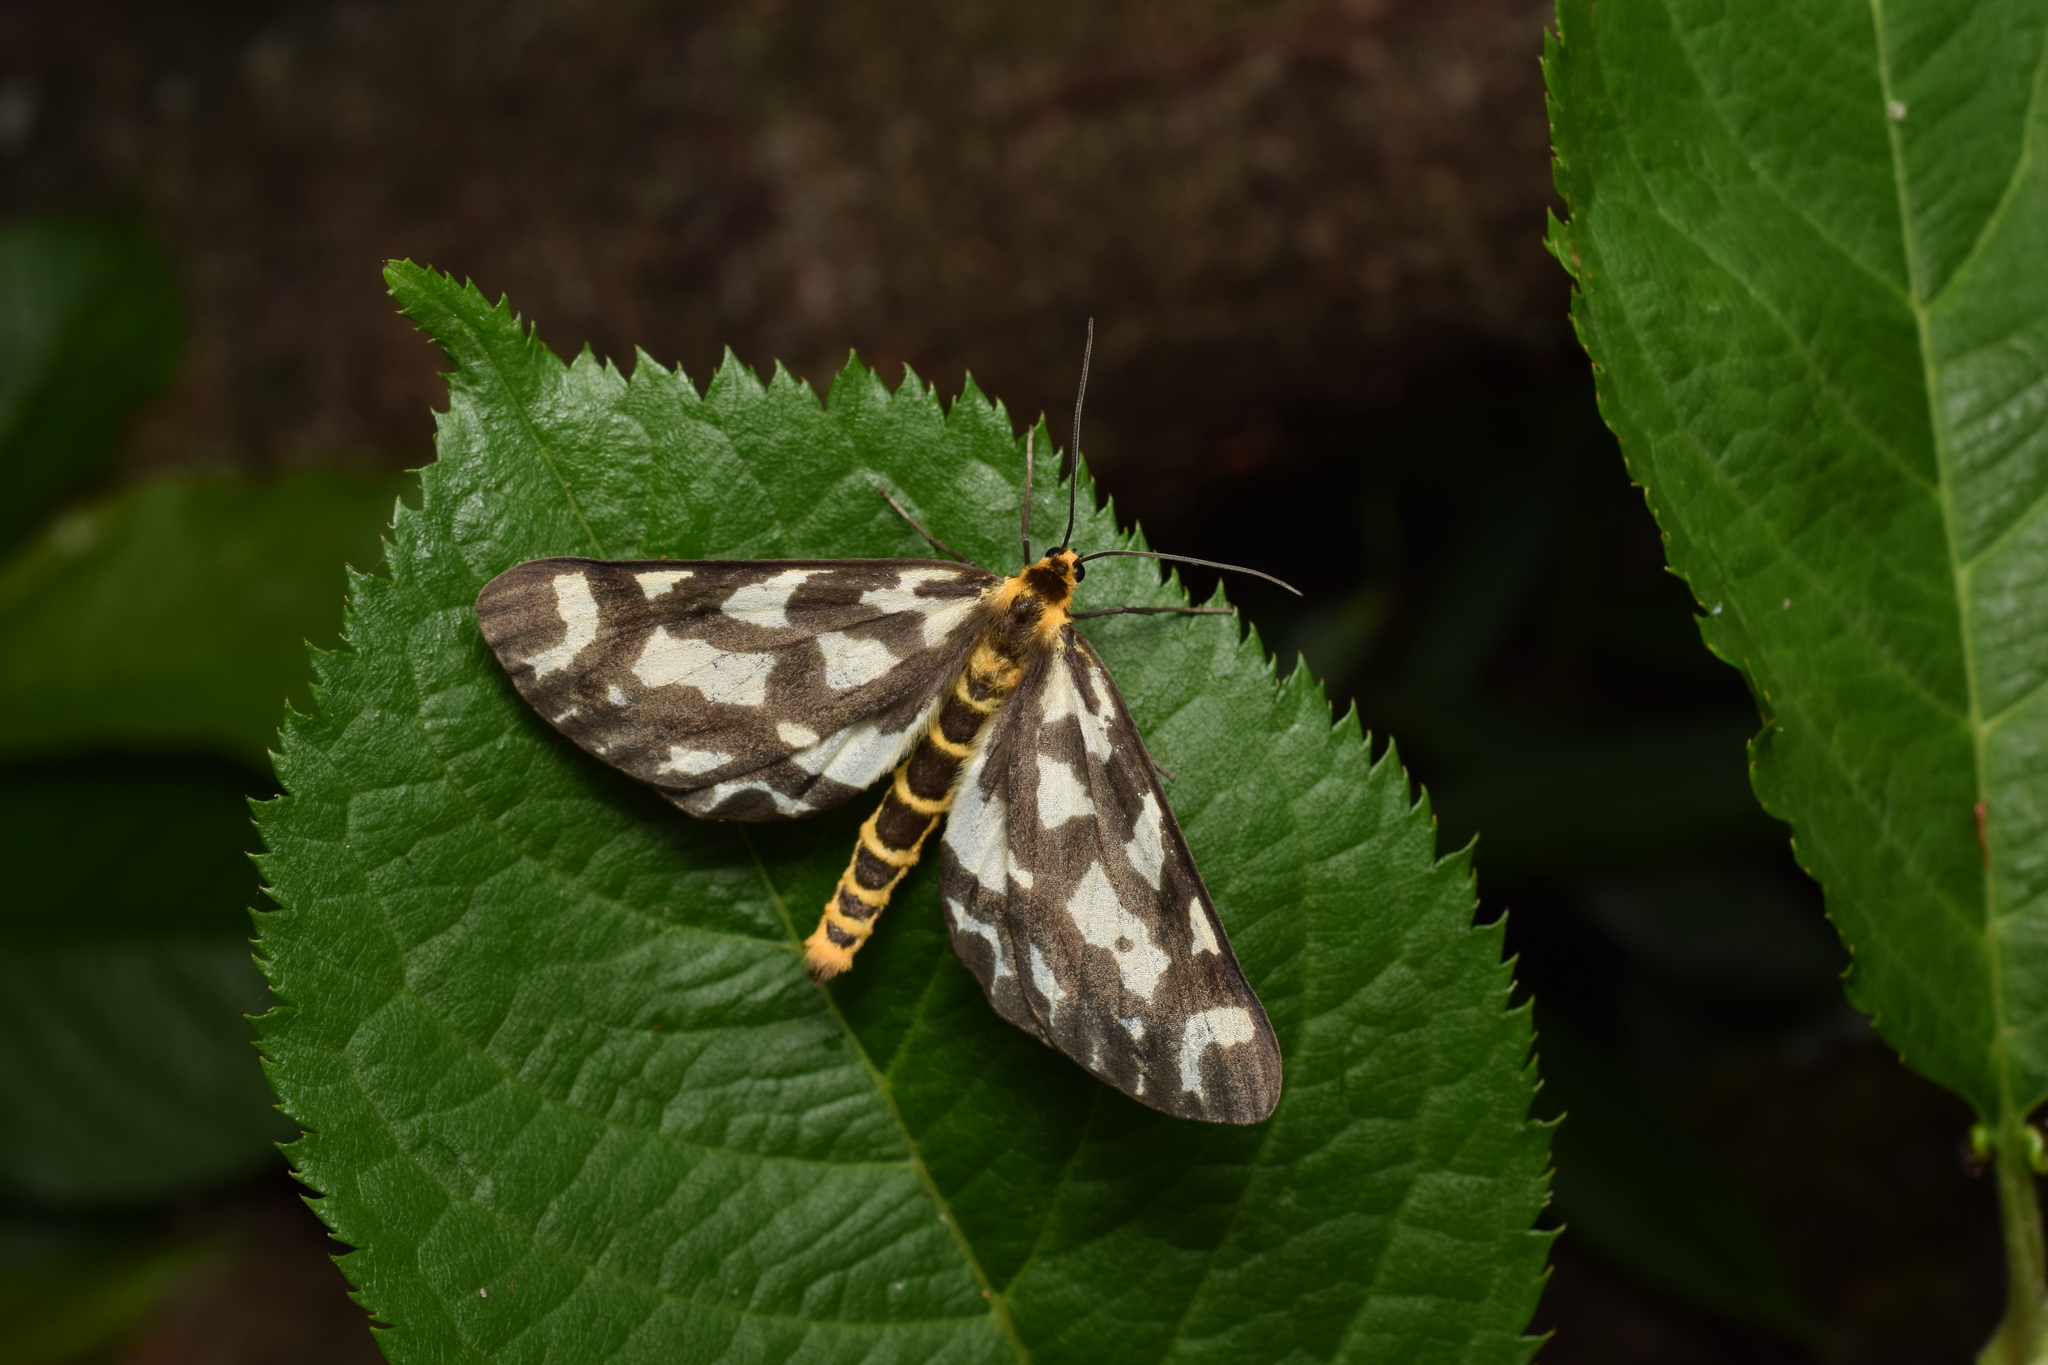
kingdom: Animalia
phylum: Arthropoda
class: Insecta
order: Lepidoptera
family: Geometridae
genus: Cystidia
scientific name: Cystidia couaggaria
